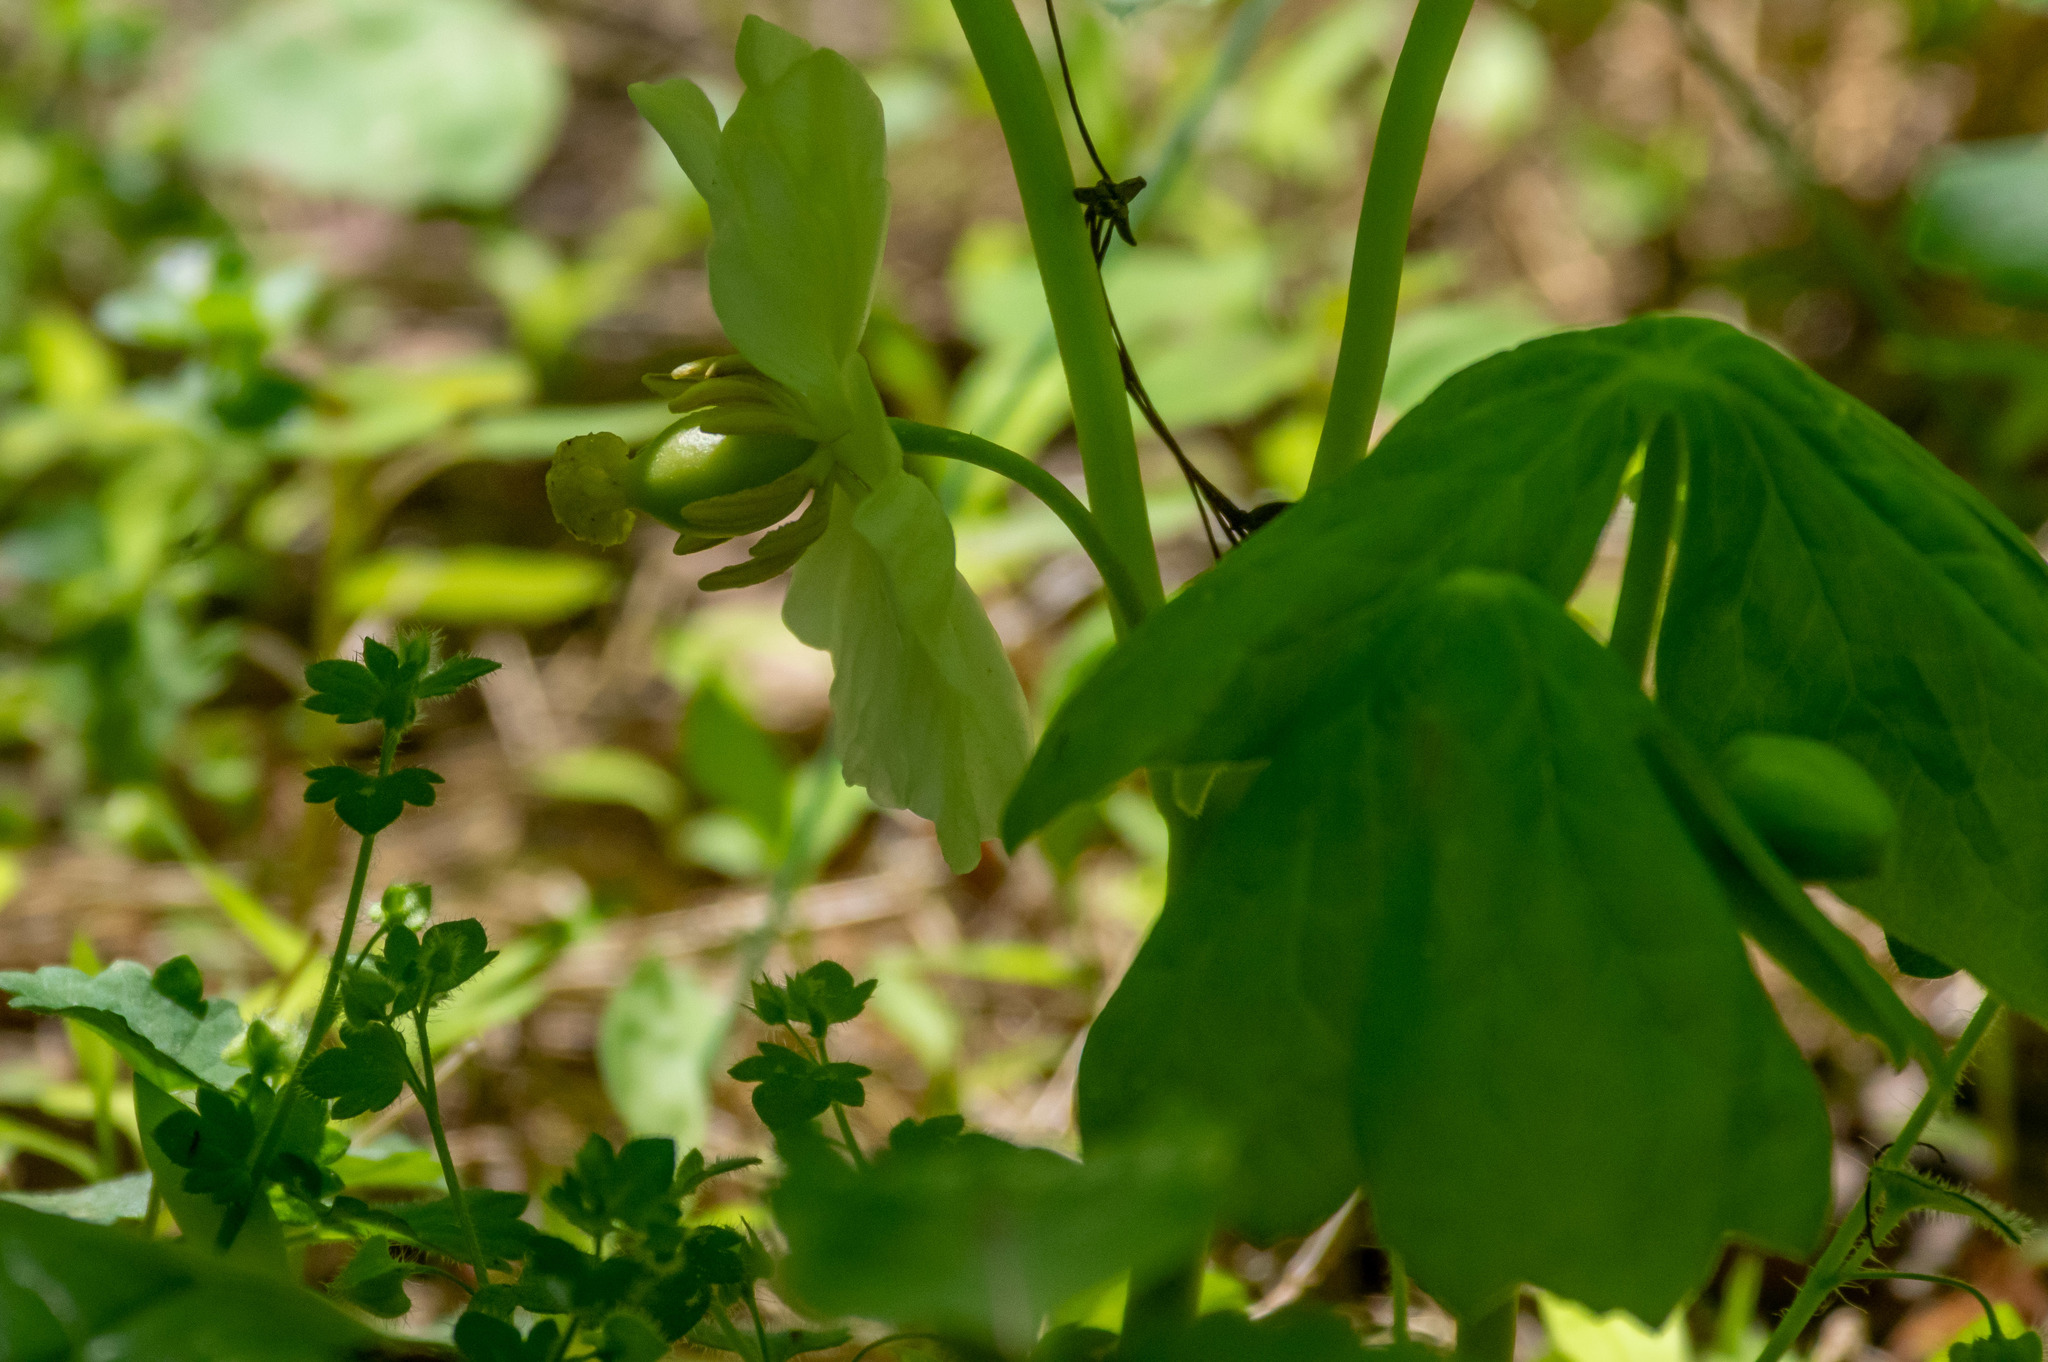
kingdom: Plantae
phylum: Tracheophyta
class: Magnoliopsida
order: Ranunculales
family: Berberidaceae
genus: Podophyllum
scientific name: Podophyllum peltatum
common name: Wild mandrake
